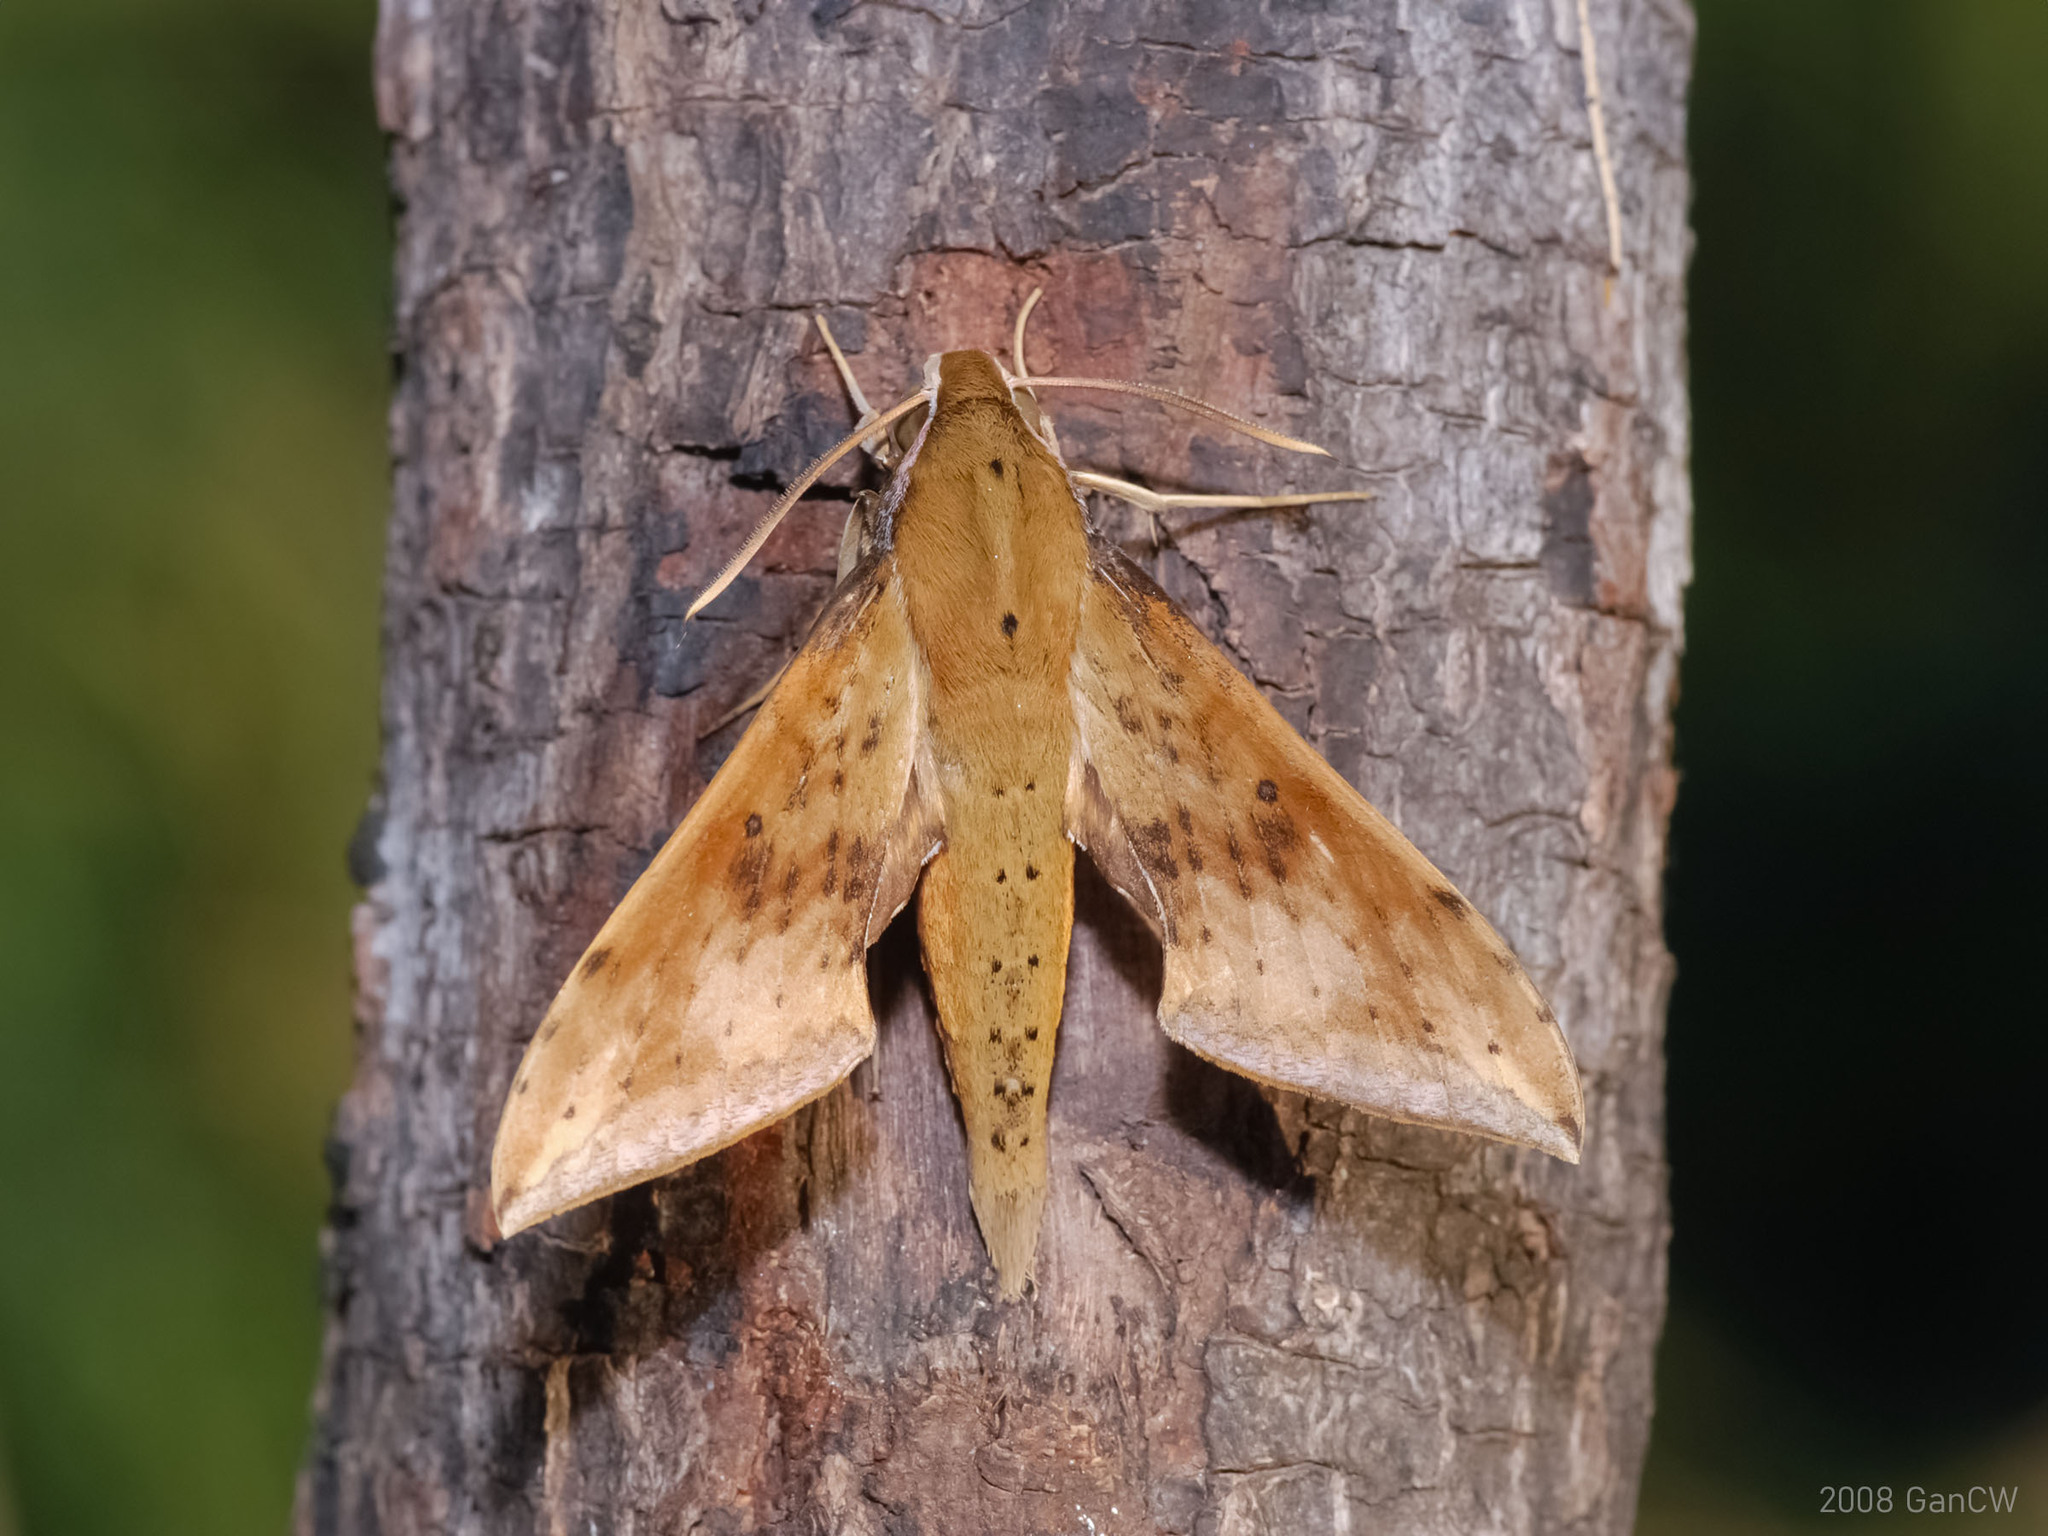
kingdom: Animalia
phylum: Arthropoda
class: Insecta
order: Lepidoptera
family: Sphingidae
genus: Rhagastis
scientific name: Rhagastis castor
